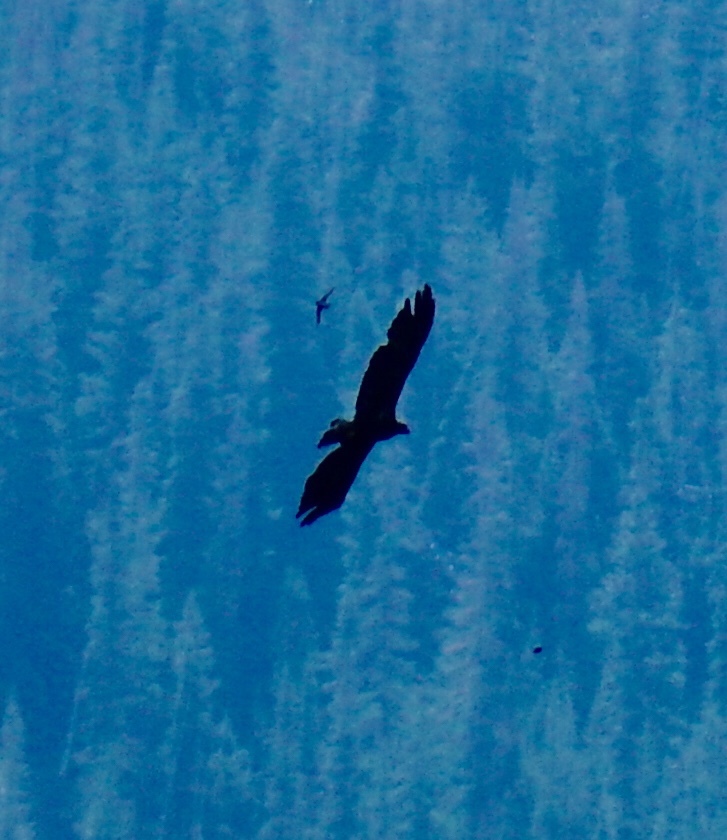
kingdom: Animalia
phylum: Chordata
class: Aves
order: Accipitriformes
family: Accipitridae
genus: Haliaeetus
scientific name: Haliaeetus leucocephalus
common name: Bald eagle
